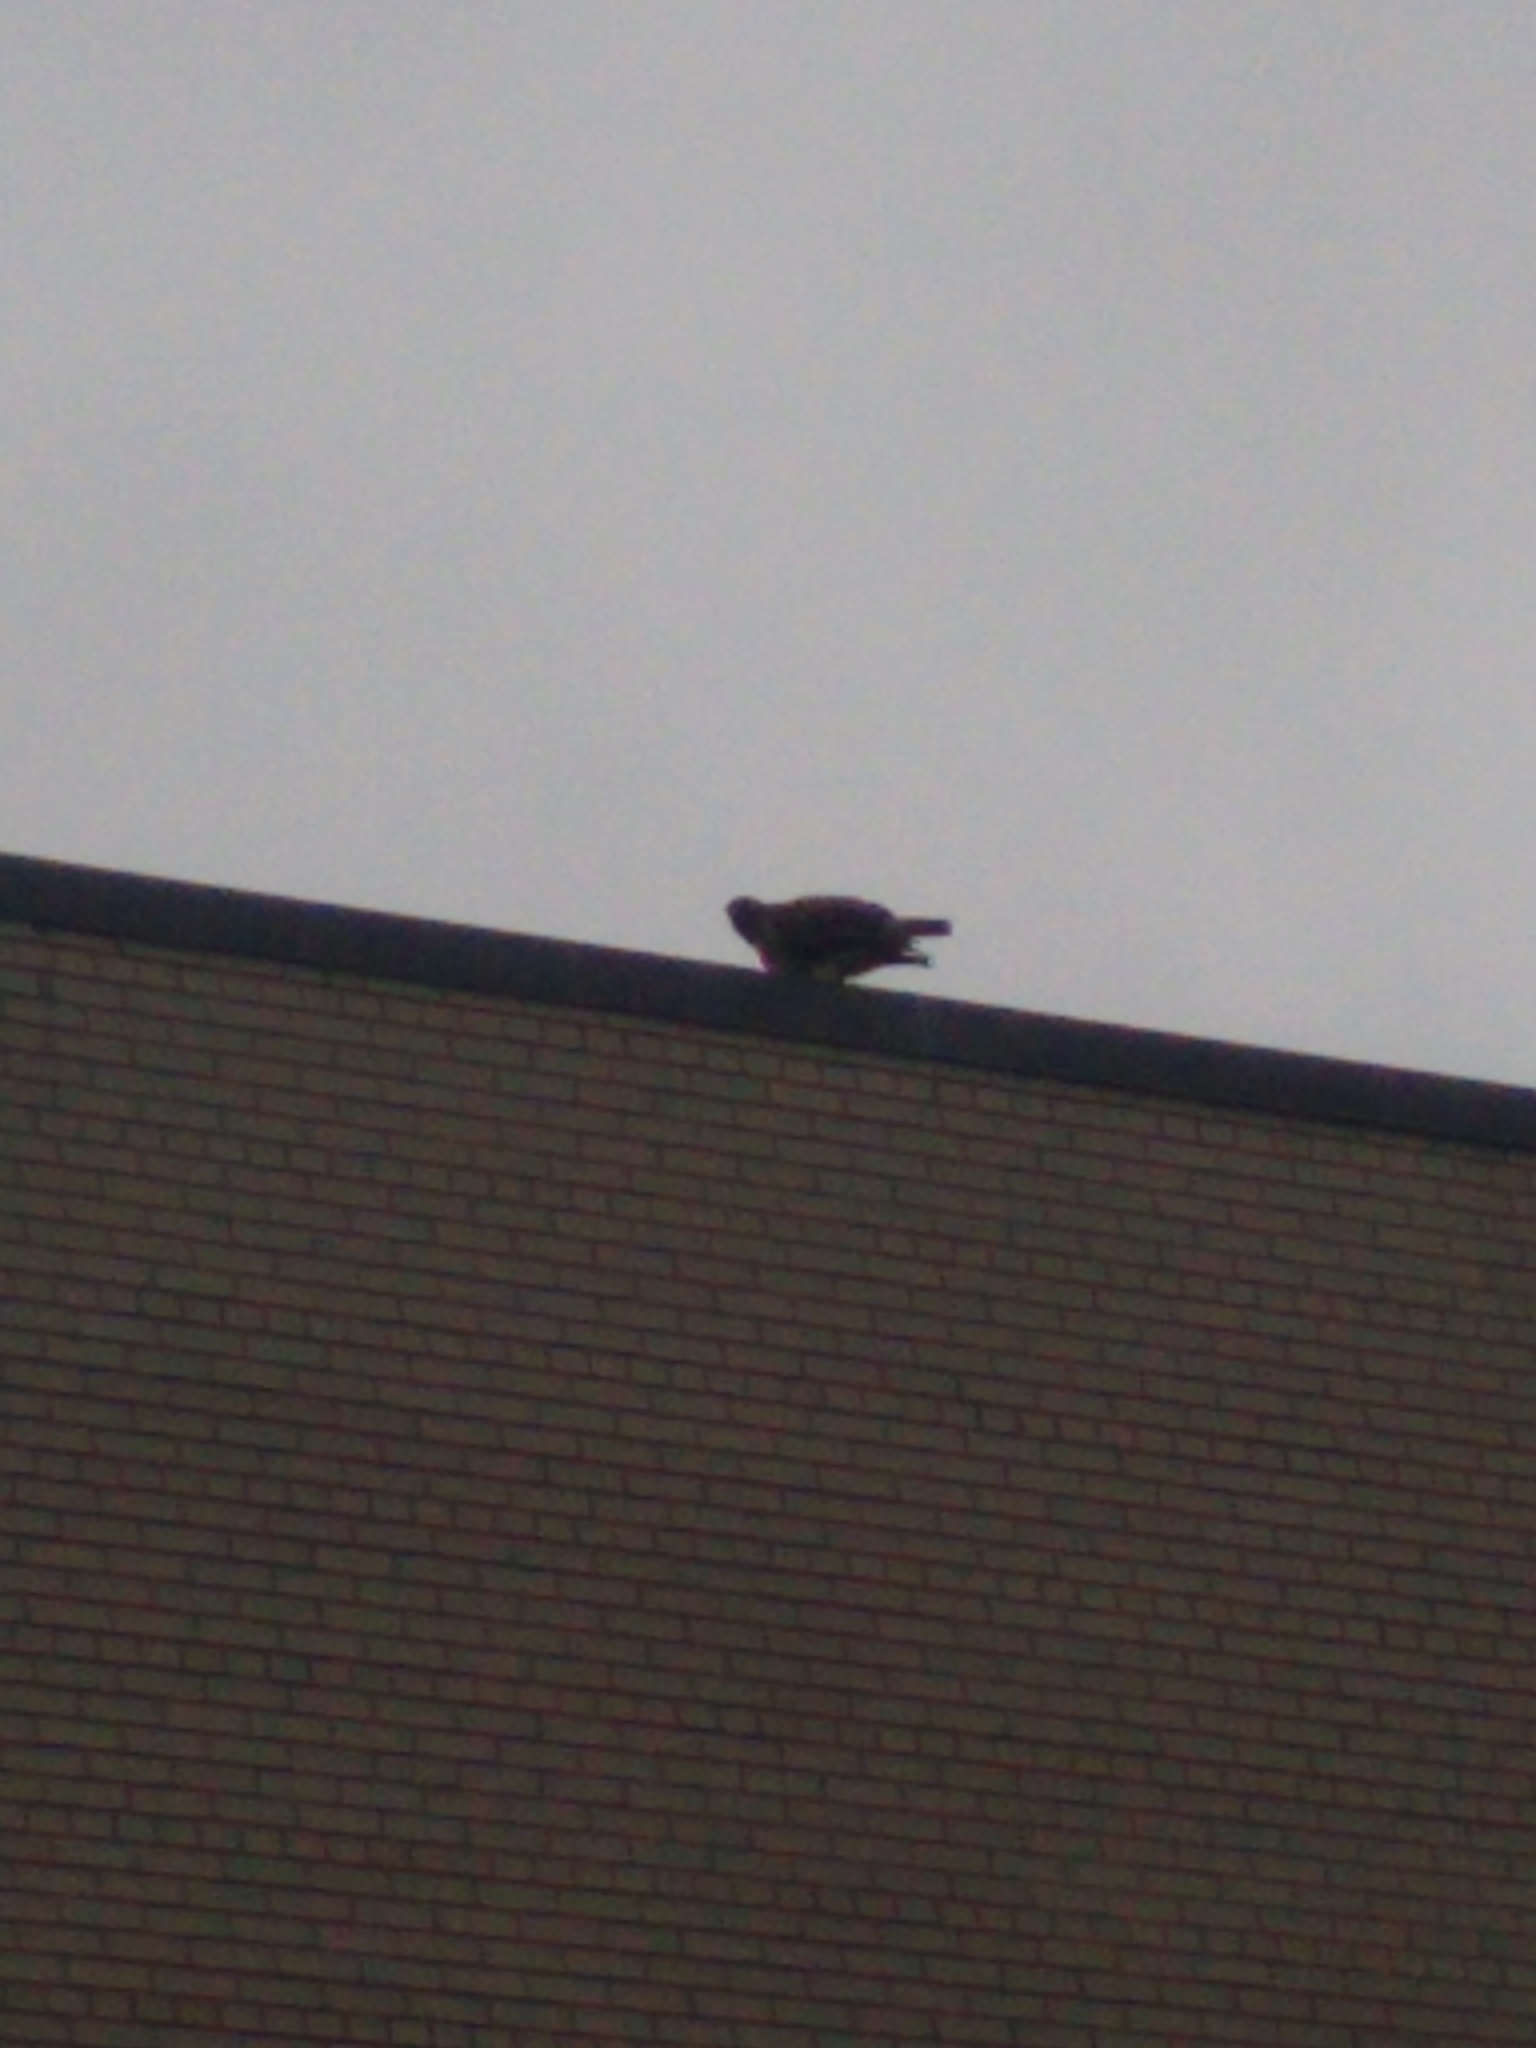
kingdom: Animalia
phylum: Chordata
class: Aves
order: Accipitriformes
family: Accipitridae
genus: Buteo
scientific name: Buteo jamaicensis
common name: Red-tailed hawk
